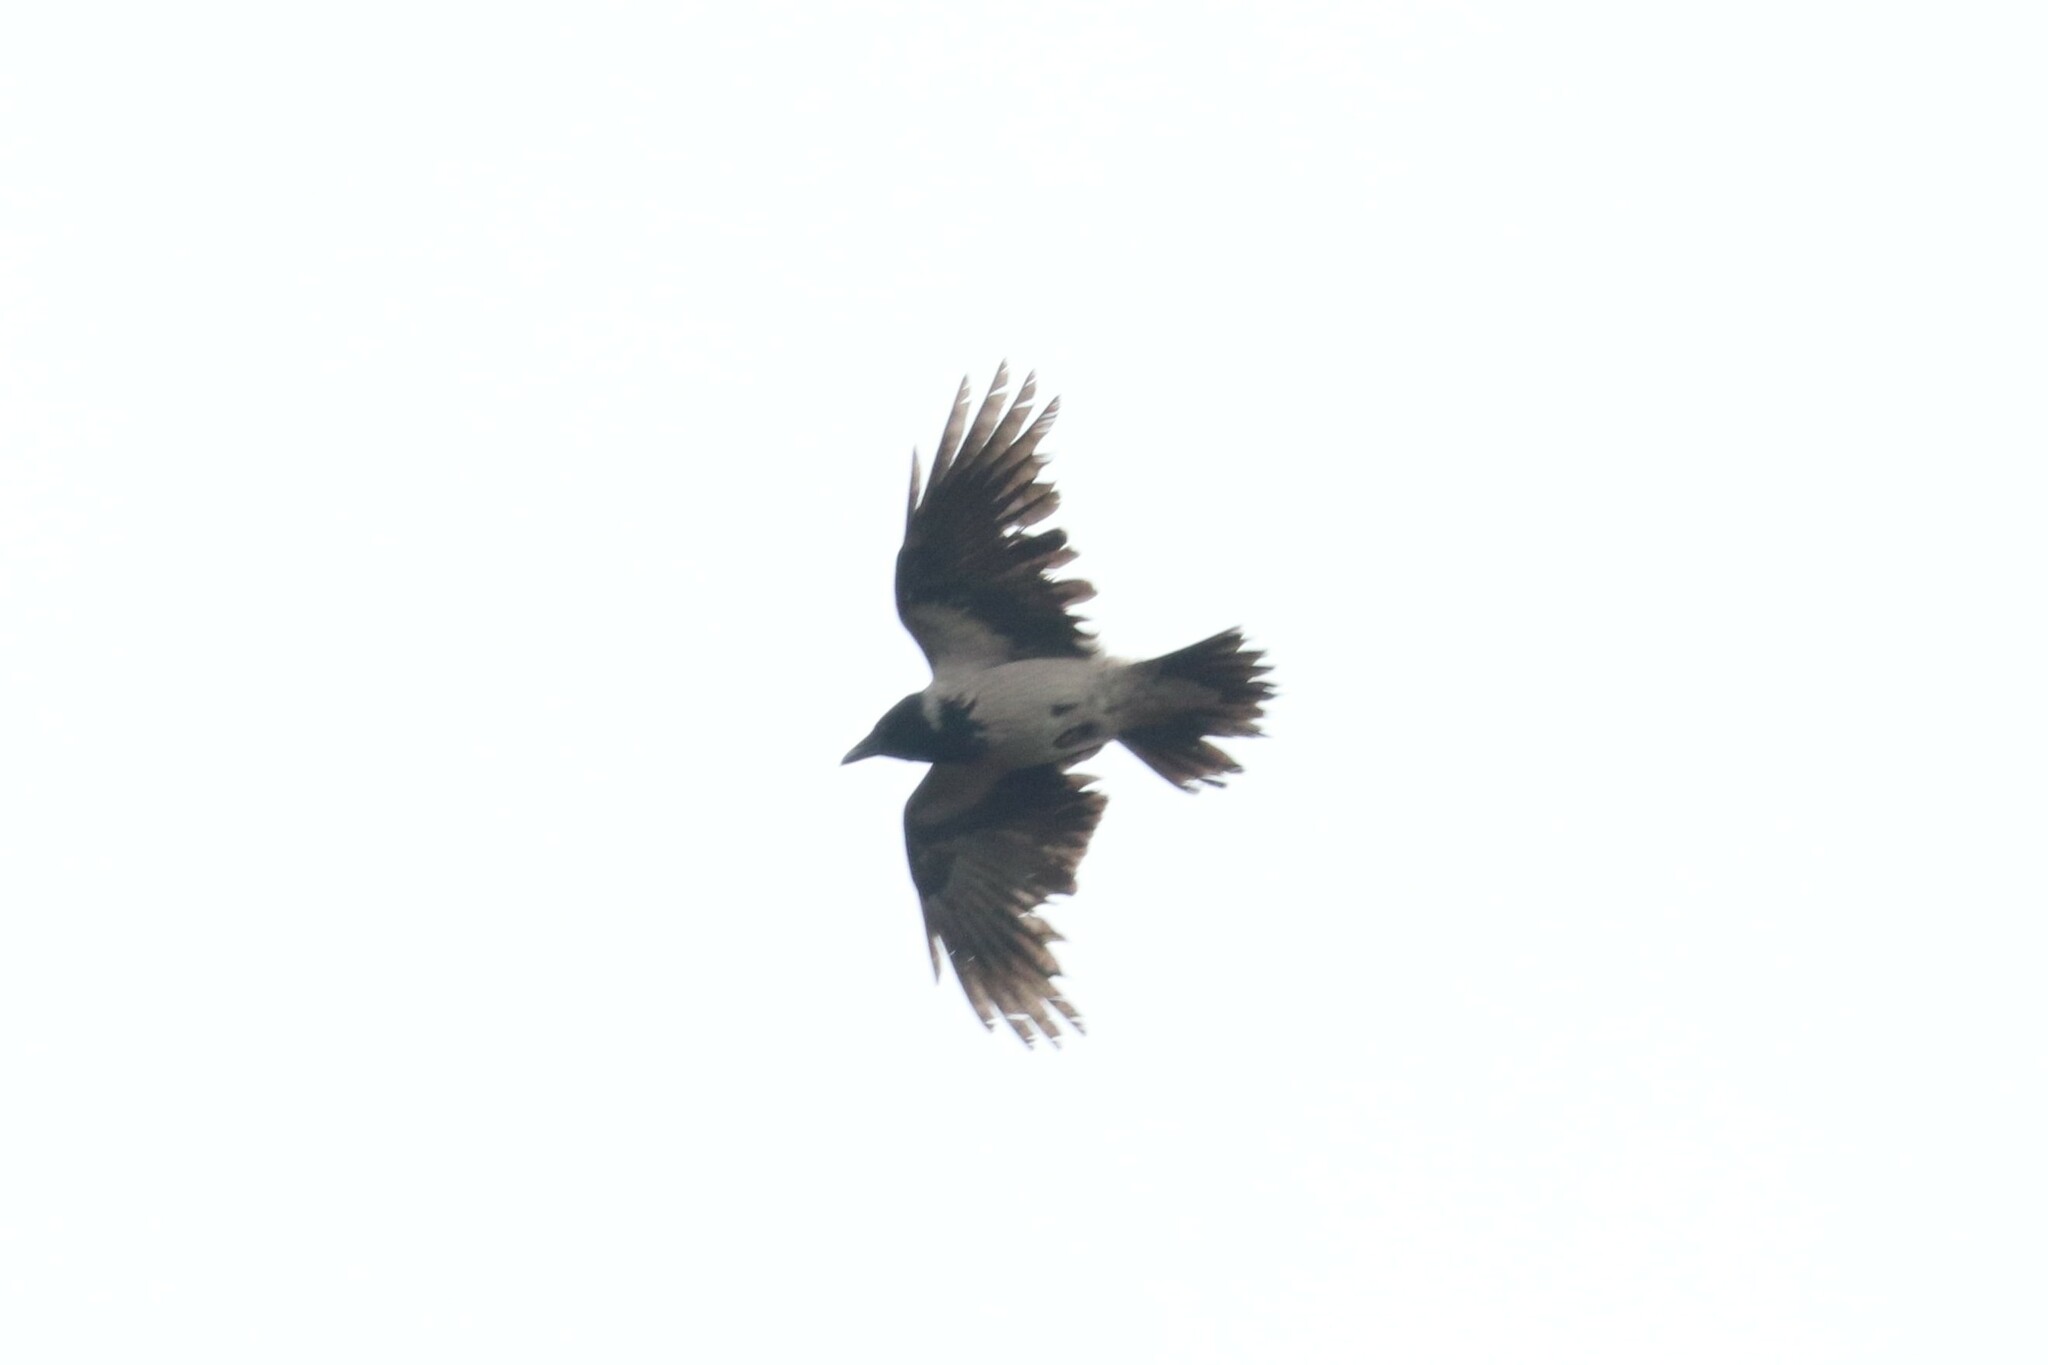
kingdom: Animalia
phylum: Chordata
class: Aves
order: Passeriformes
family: Corvidae
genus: Corvus
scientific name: Corvus cornix
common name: Hooded crow
